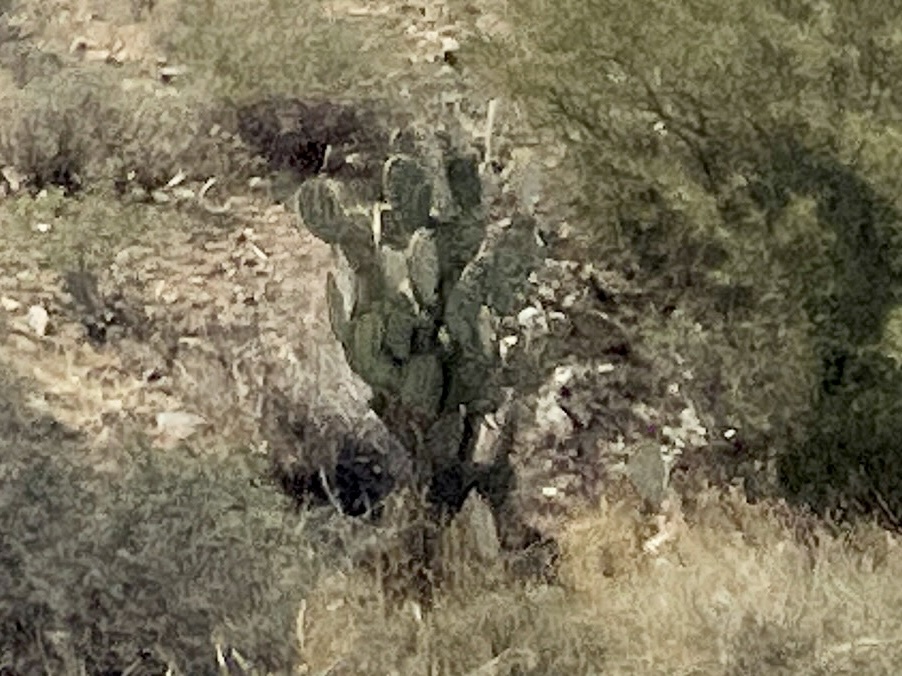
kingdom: Plantae
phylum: Tracheophyta
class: Magnoliopsida
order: Caryophyllales
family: Cactaceae
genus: Opuntia
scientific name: Opuntia chlorotica
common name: Dollar-joint prickly-pear
